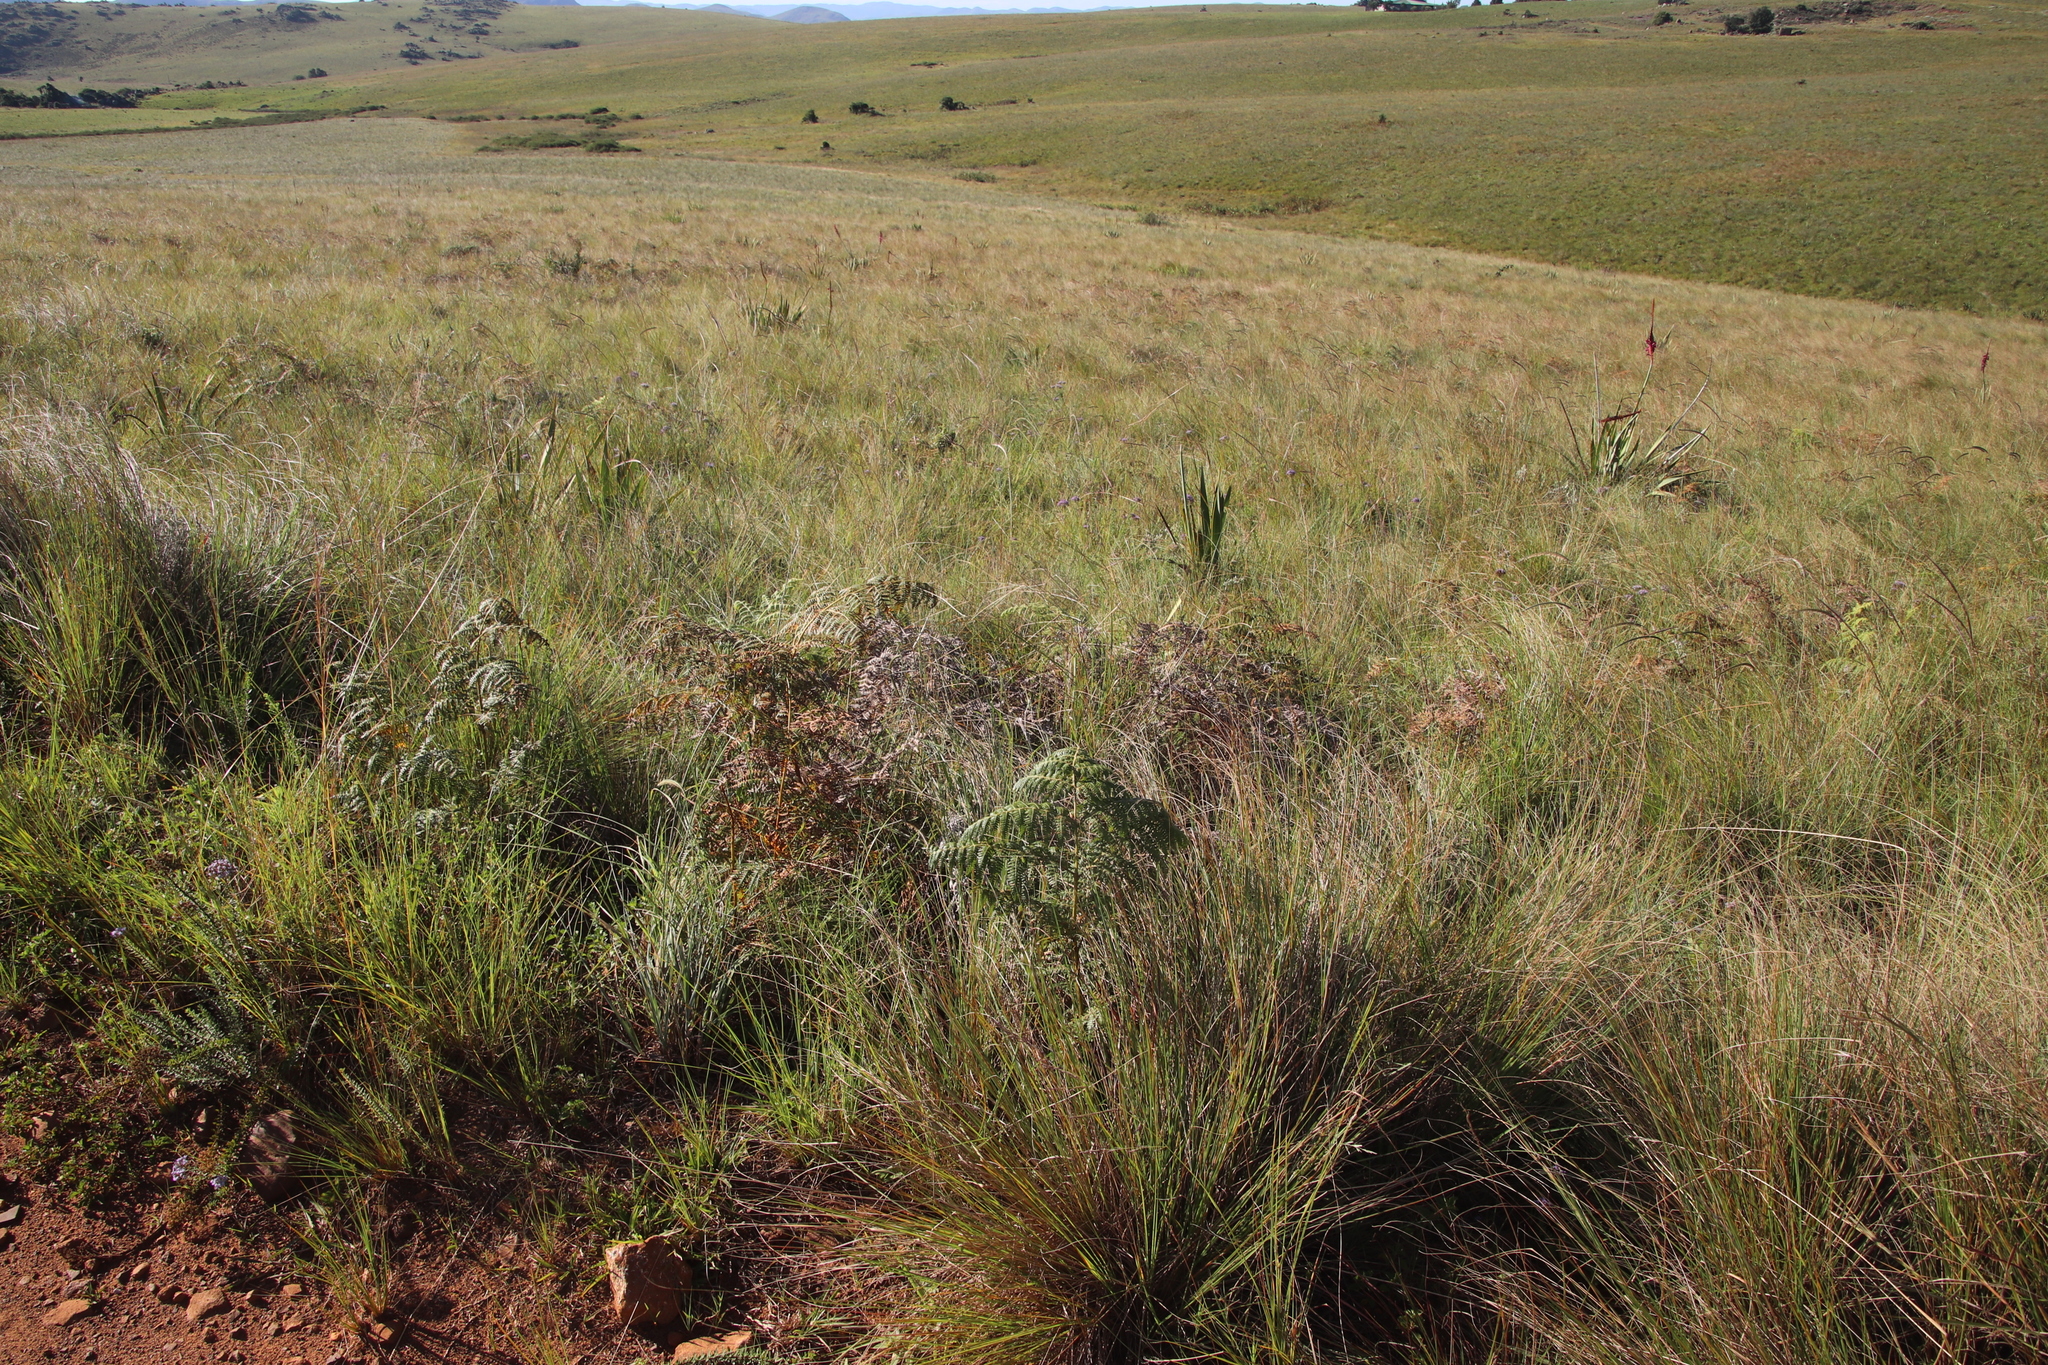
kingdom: Plantae
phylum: Tracheophyta
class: Polypodiopsida
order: Polypodiales
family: Dennstaedtiaceae
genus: Pteridium
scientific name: Pteridium aquilinum
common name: Bracken
